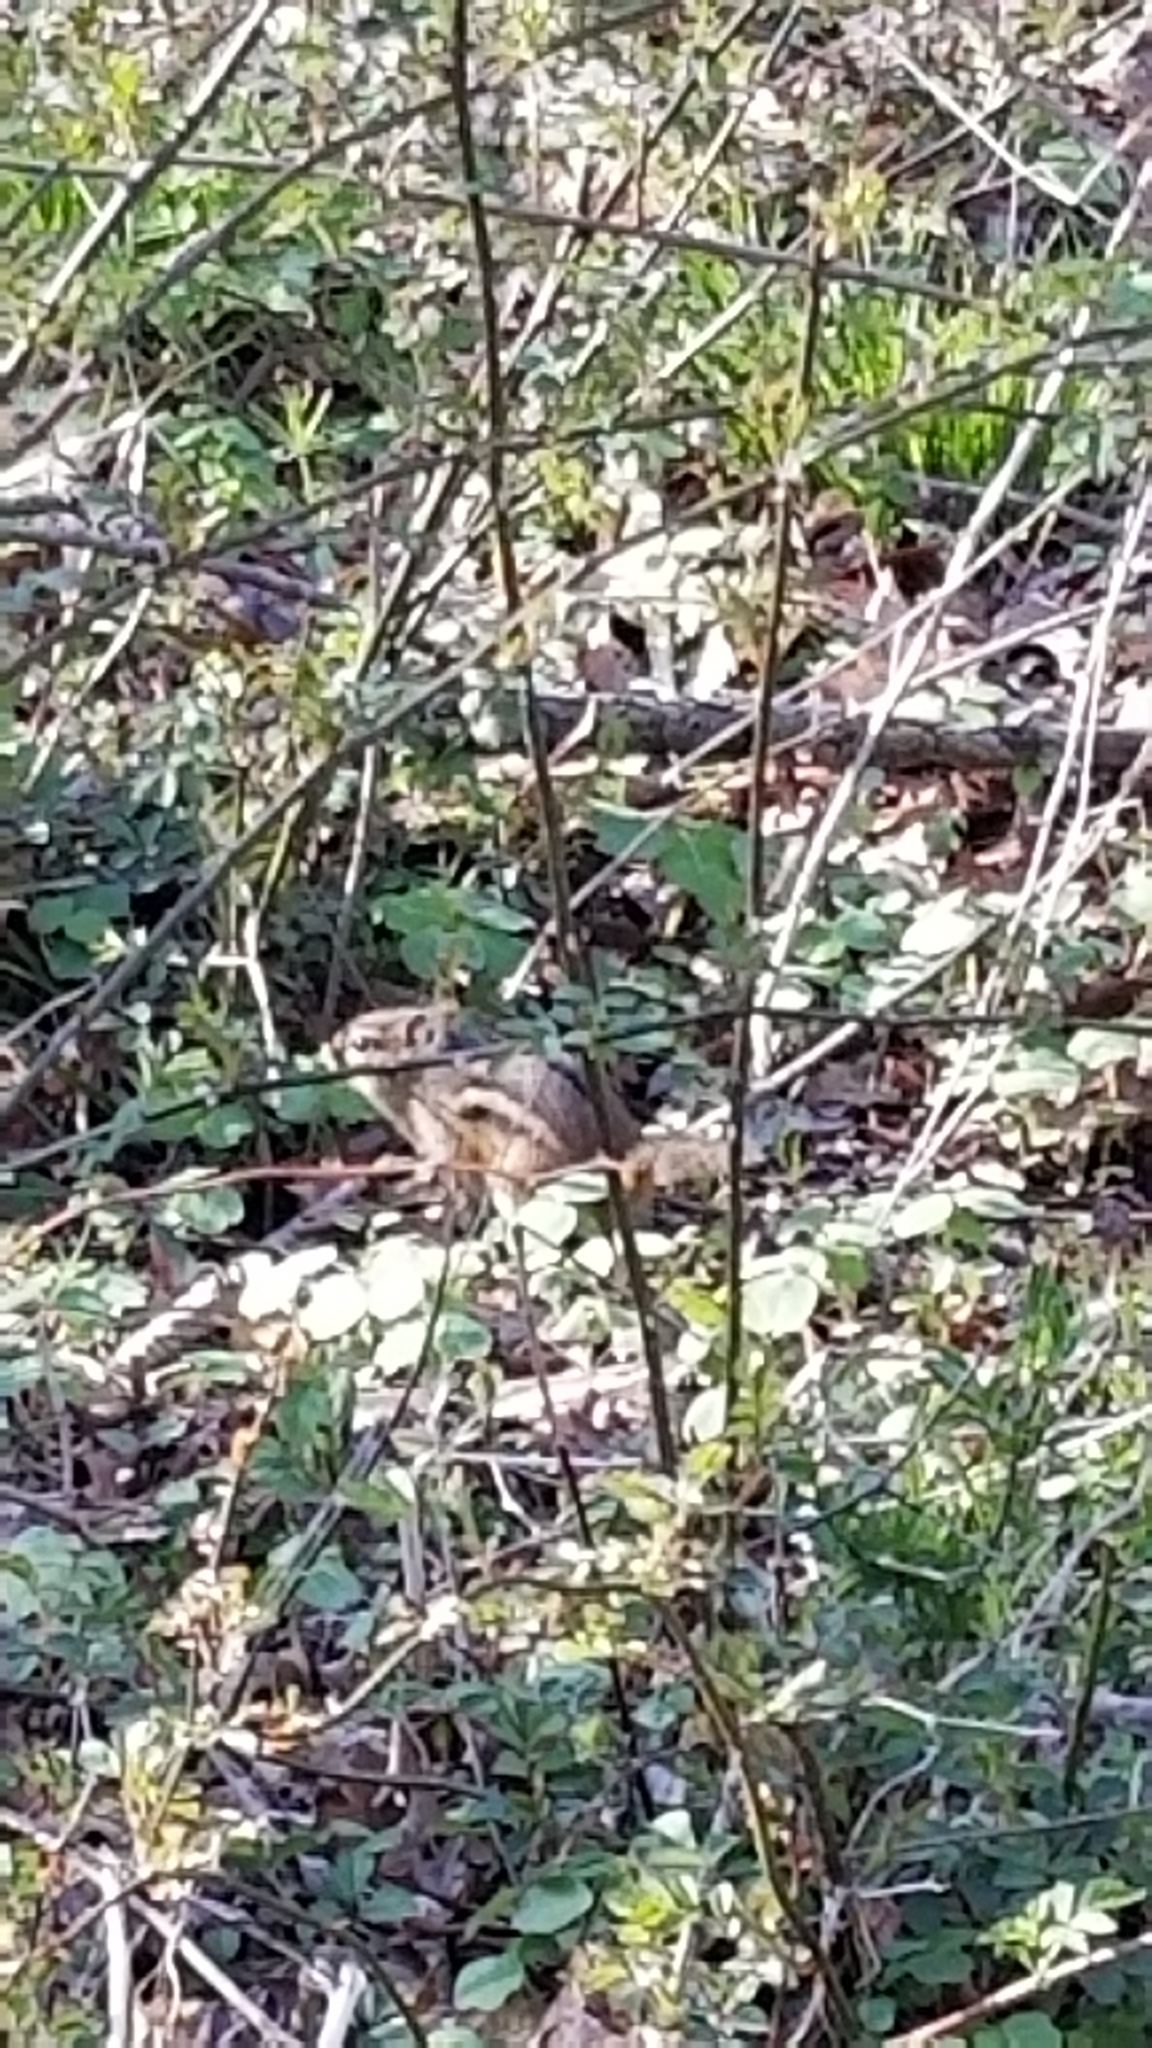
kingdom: Animalia
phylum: Chordata
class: Mammalia
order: Rodentia
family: Sciuridae
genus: Tamias
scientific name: Tamias striatus
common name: Eastern chipmunk
